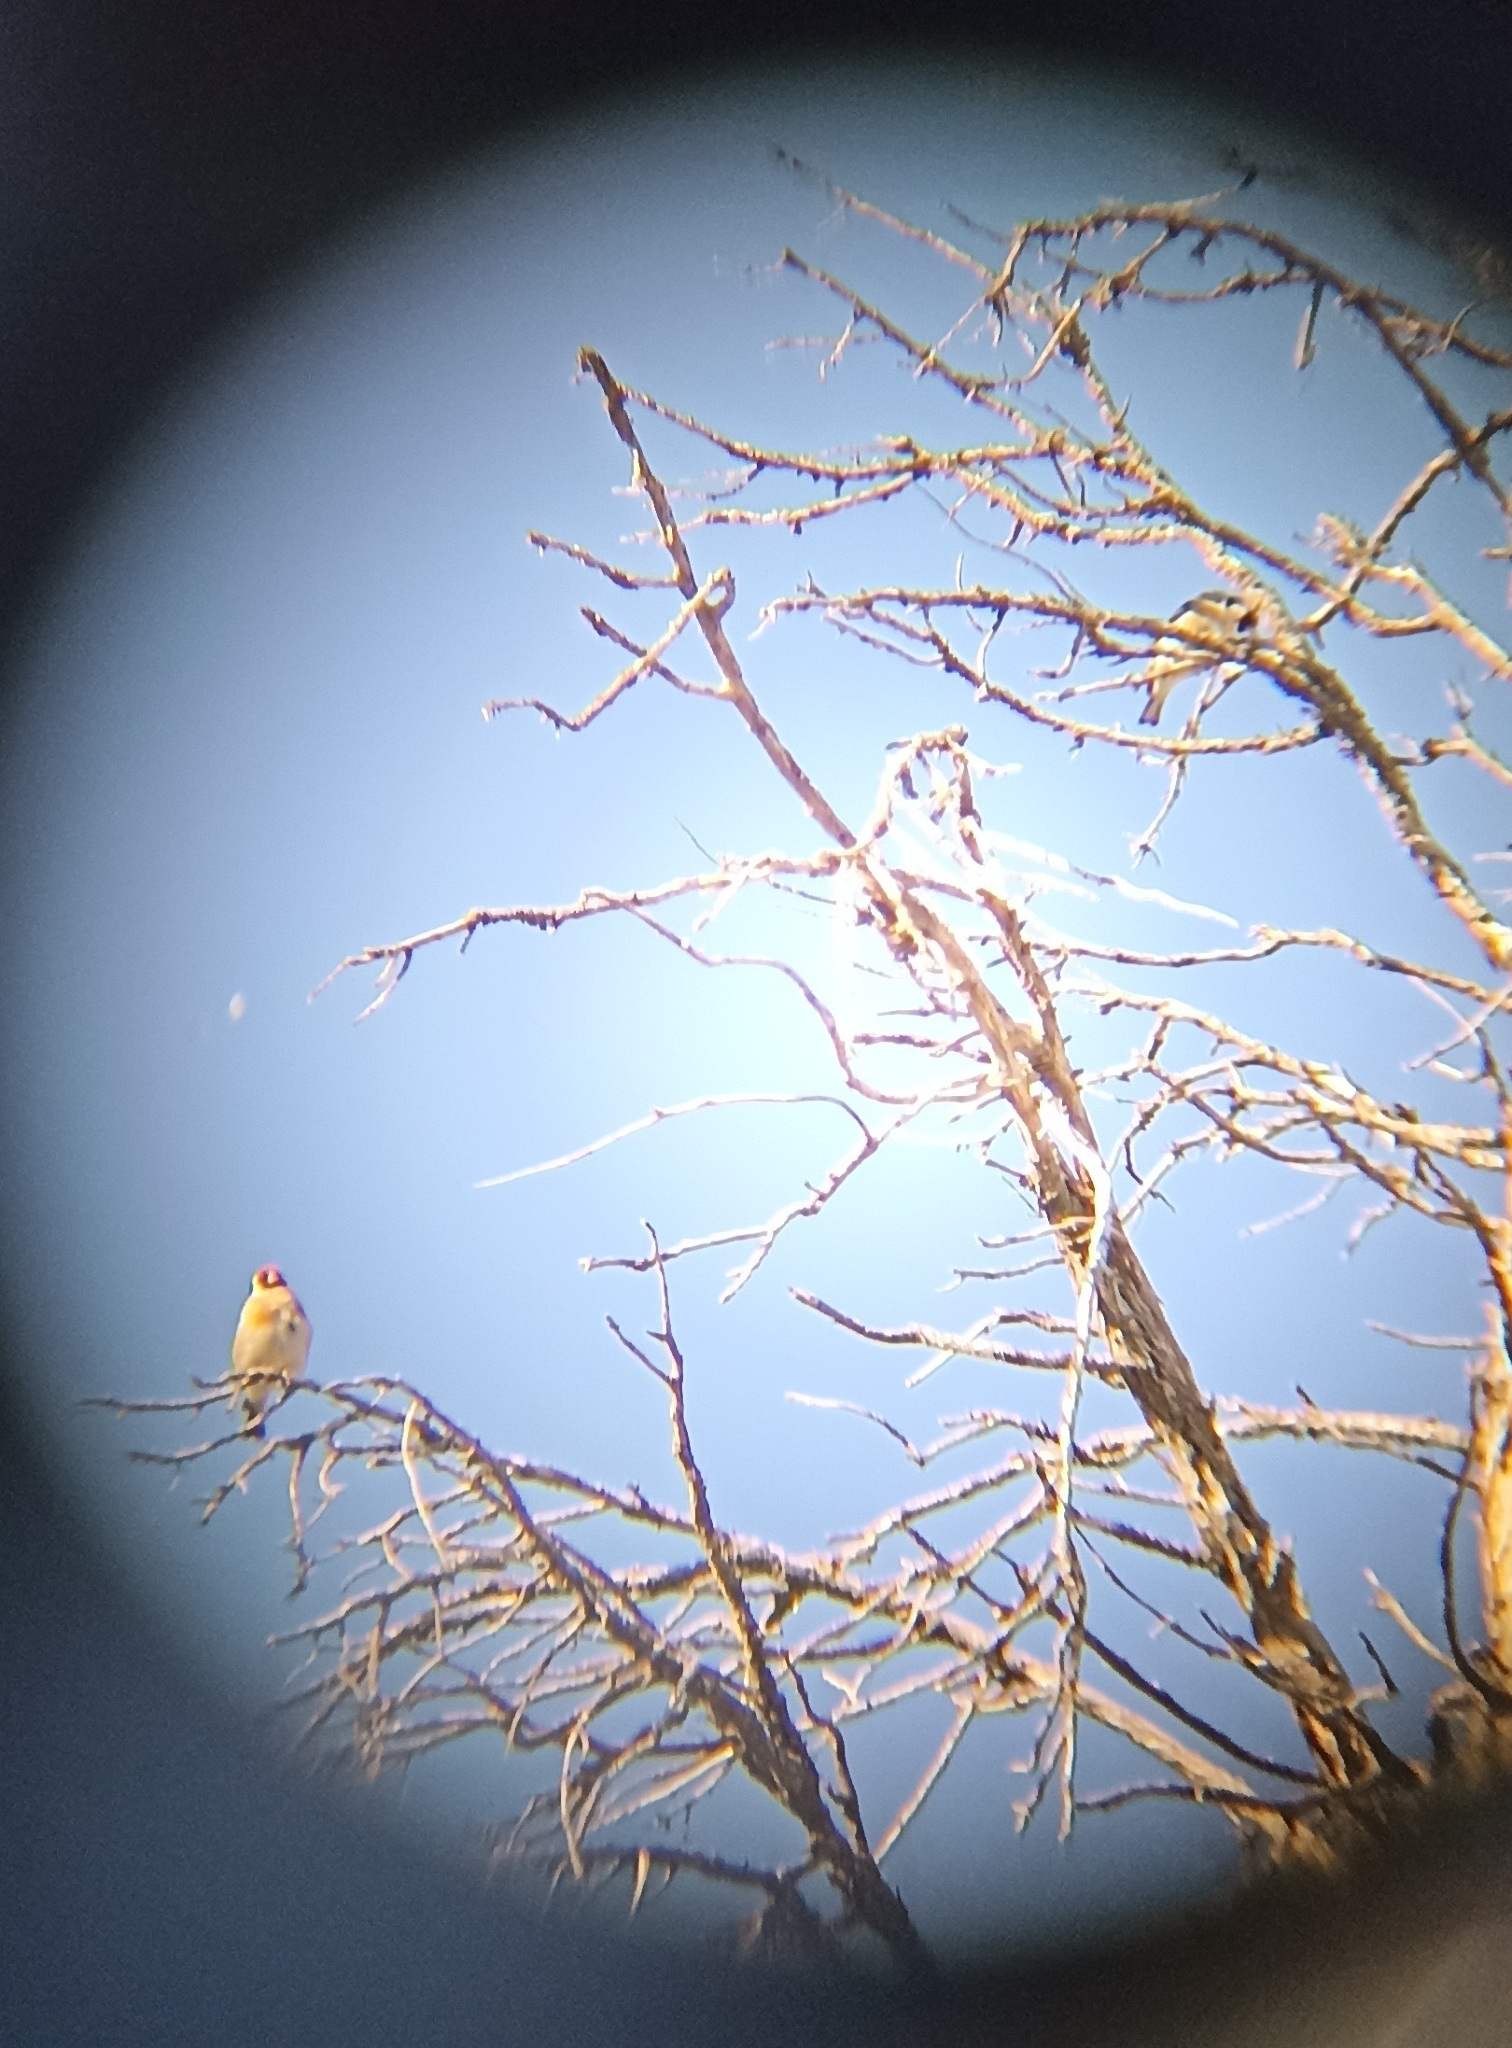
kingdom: Animalia
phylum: Chordata
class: Aves
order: Passeriformes
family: Fringillidae
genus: Carduelis
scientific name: Carduelis carduelis
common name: European goldfinch
